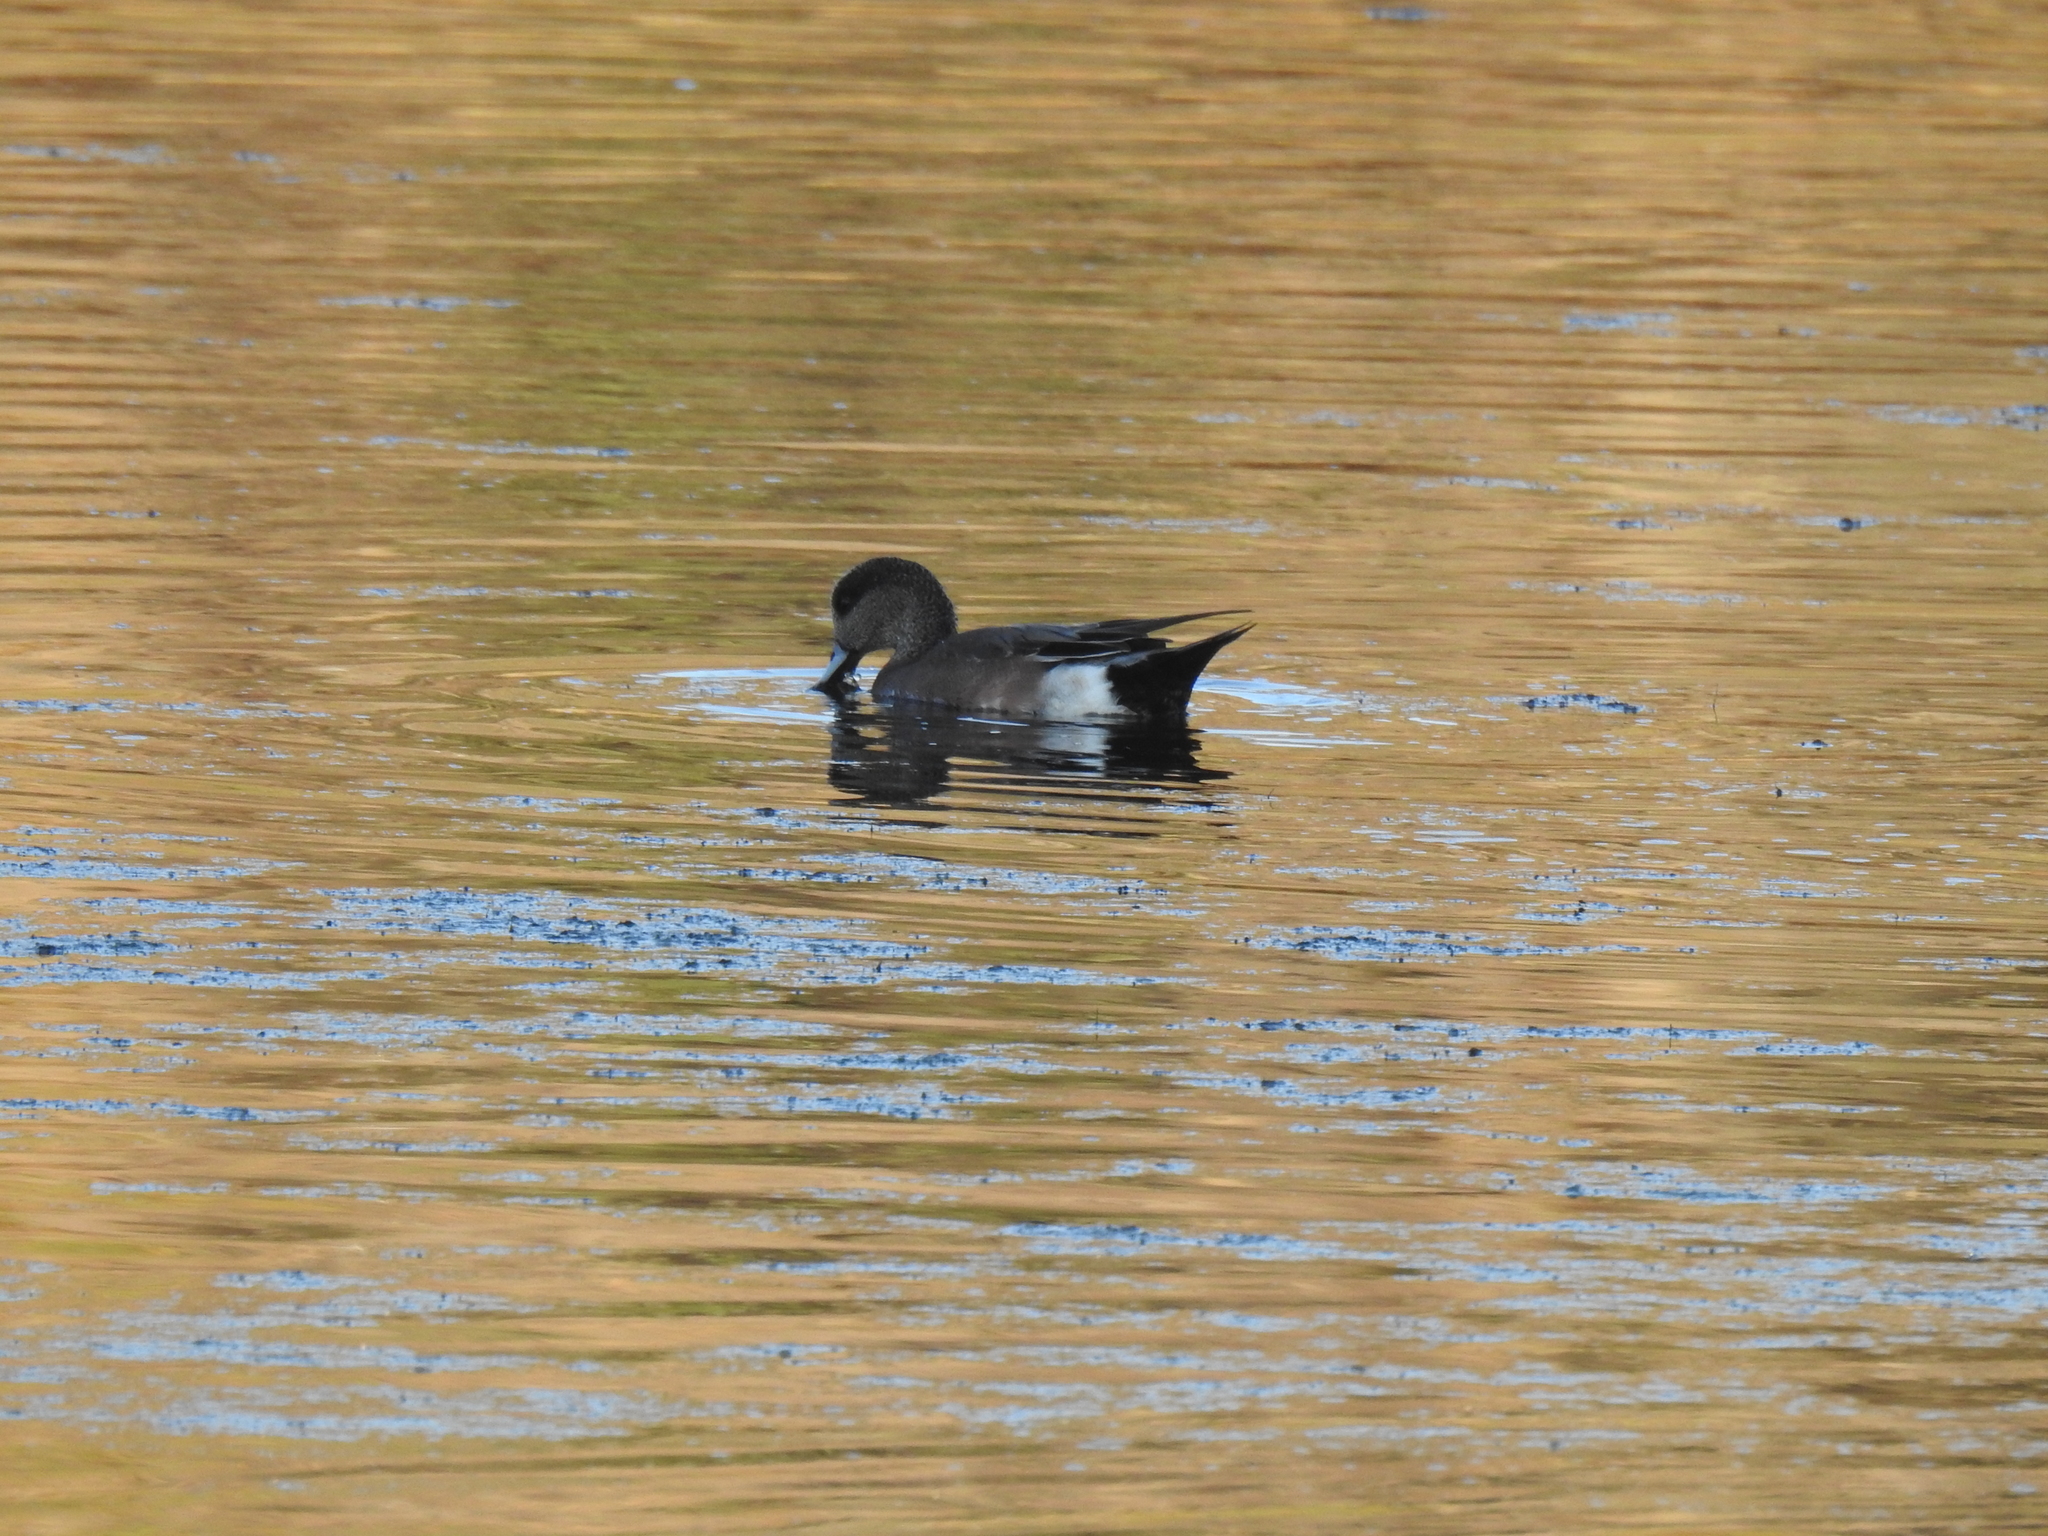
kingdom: Animalia
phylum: Chordata
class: Aves
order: Anseriformes
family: Anatidae
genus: Mareca
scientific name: Mareca americana
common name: American wigeon
